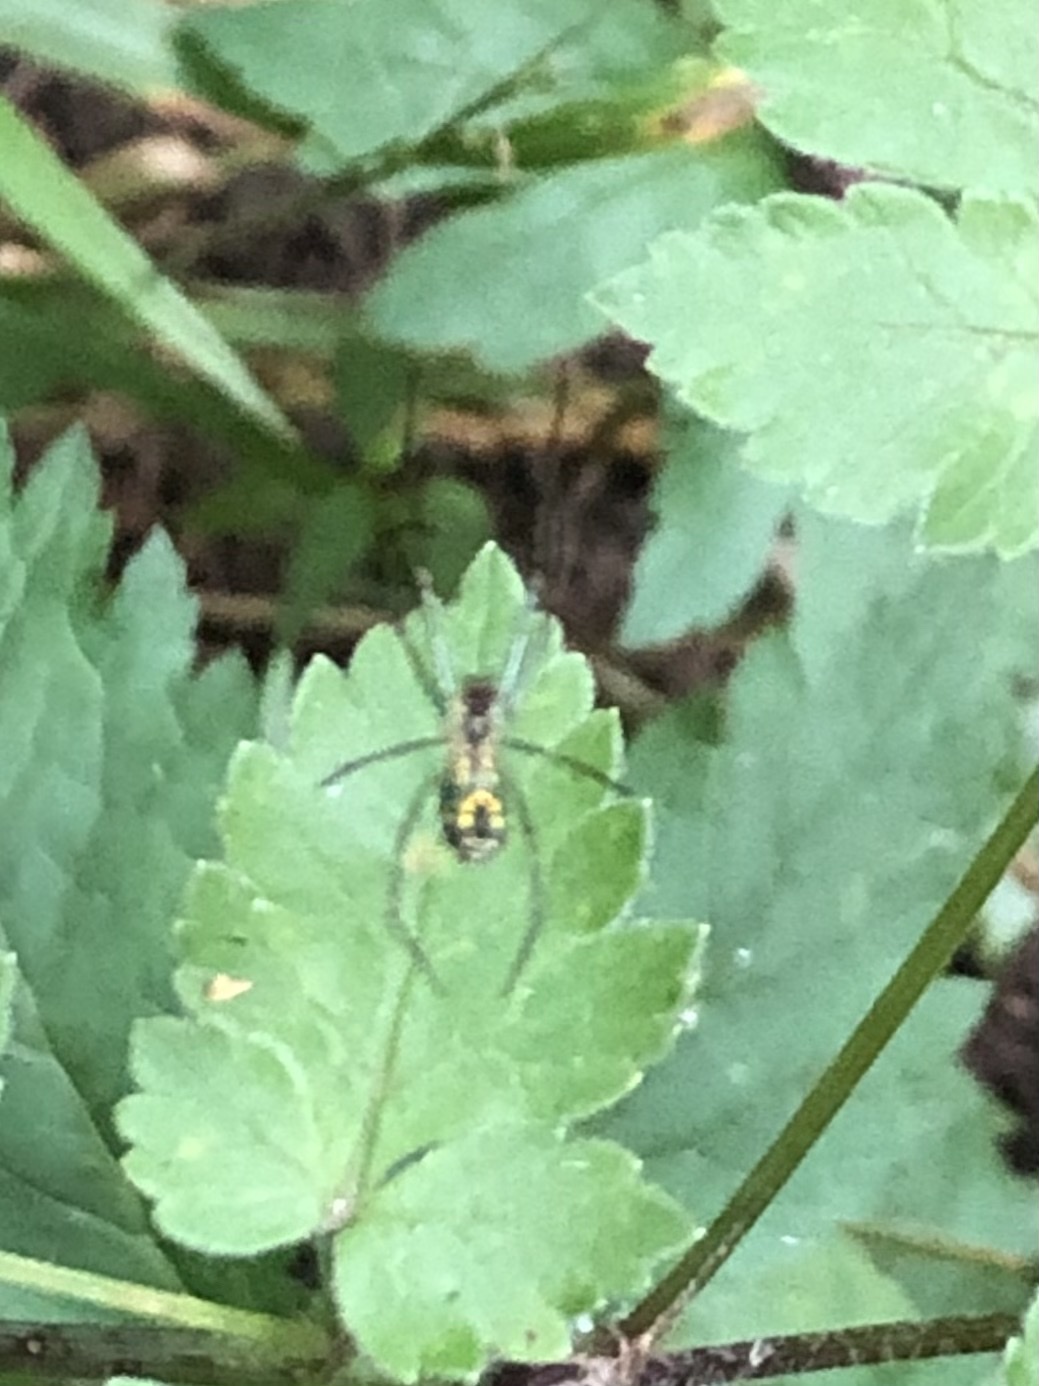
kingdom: Animalia
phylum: Arthropoda
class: Arachnida
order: Araneae
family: Tetragnathidae
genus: Leucauge
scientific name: Leucauge venusta
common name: Longjawed orb weavers
